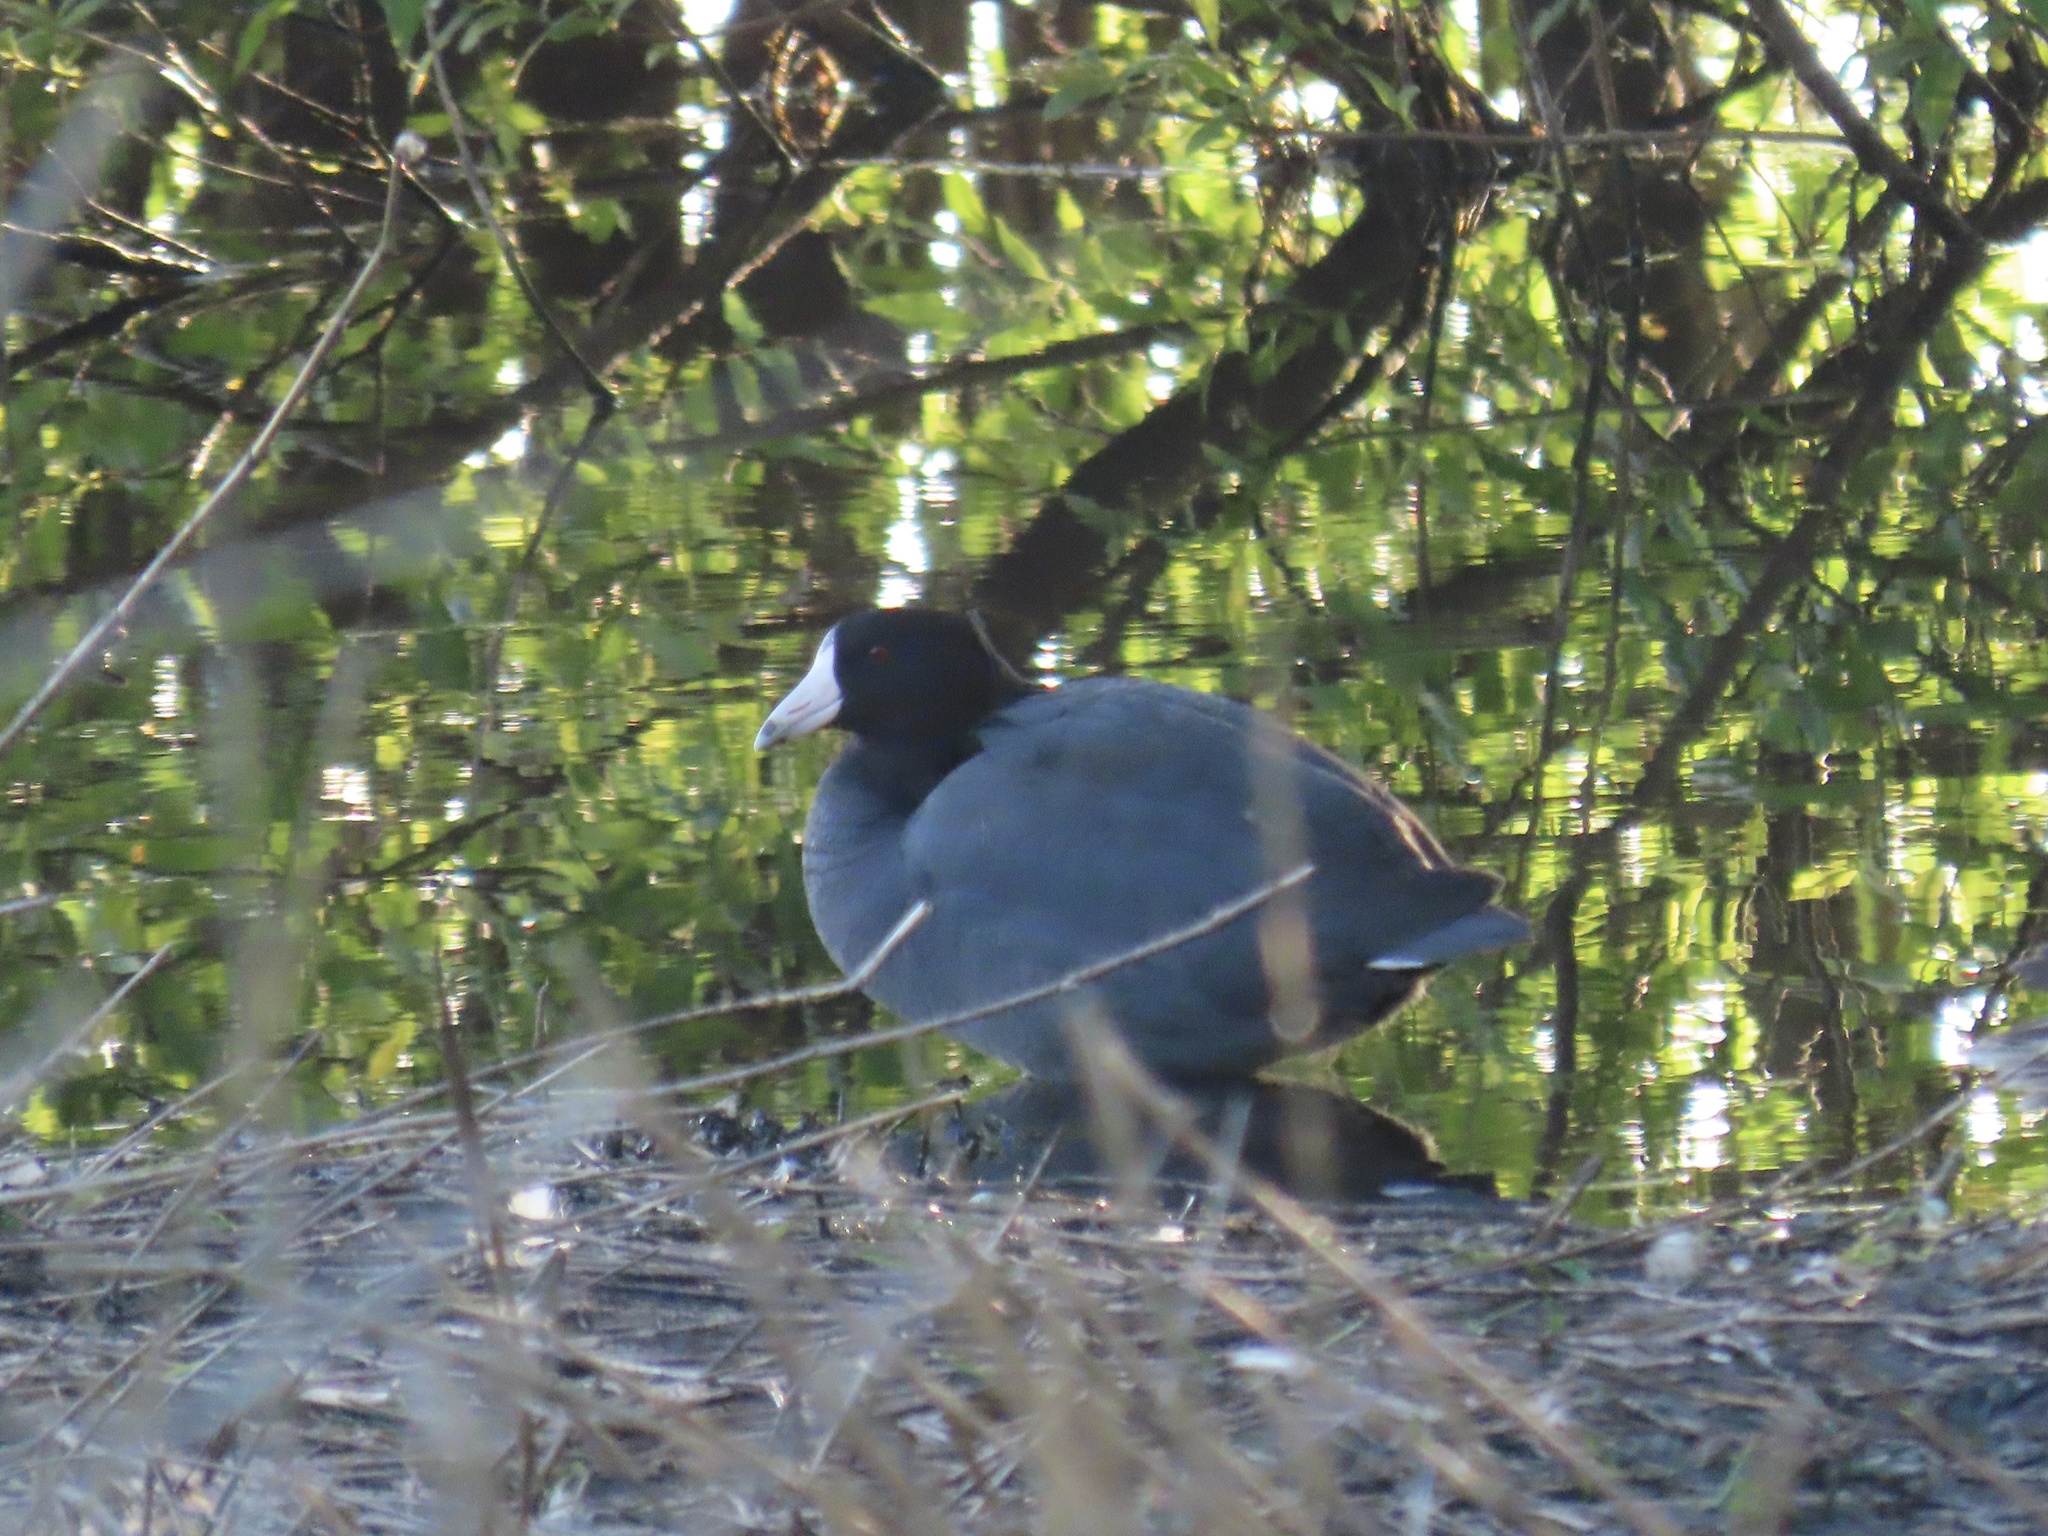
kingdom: Animalia
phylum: Chordata
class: Aves
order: Gruiformes
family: Rallidae
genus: Fulica
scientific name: Fulica americana
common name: American coot
